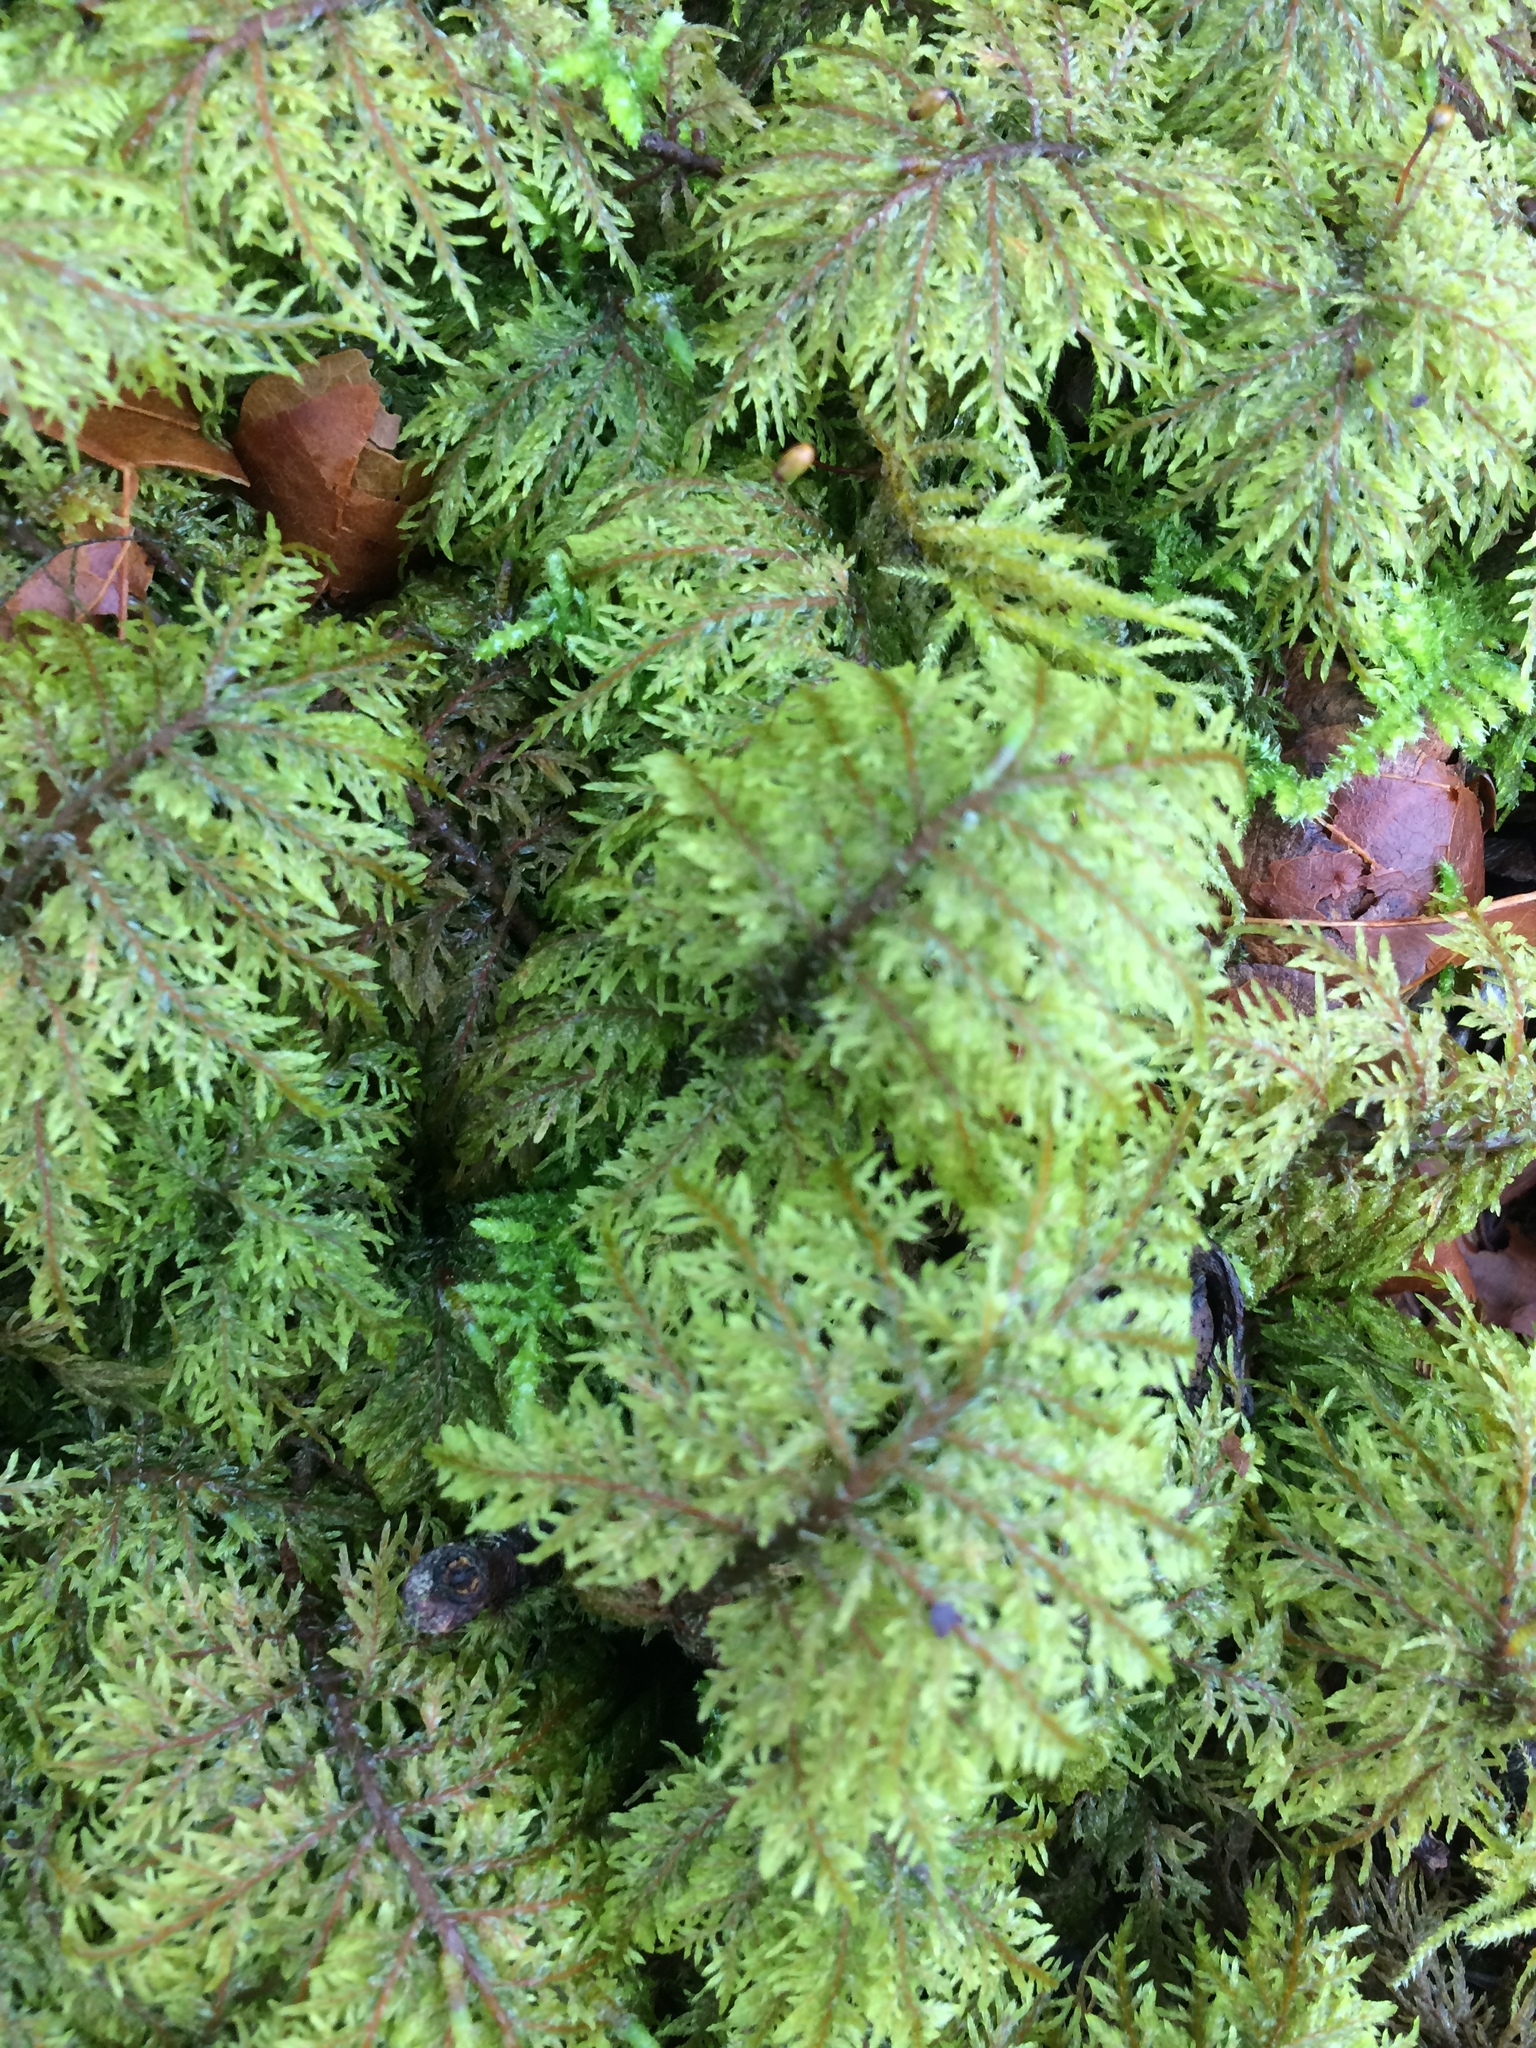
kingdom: Plantae
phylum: Bryophyta
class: Bryopsida
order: Hypnales
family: Hylocomiaceae
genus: Hylocomium
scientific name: Hylocomium splendens
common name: Stairstep moss
